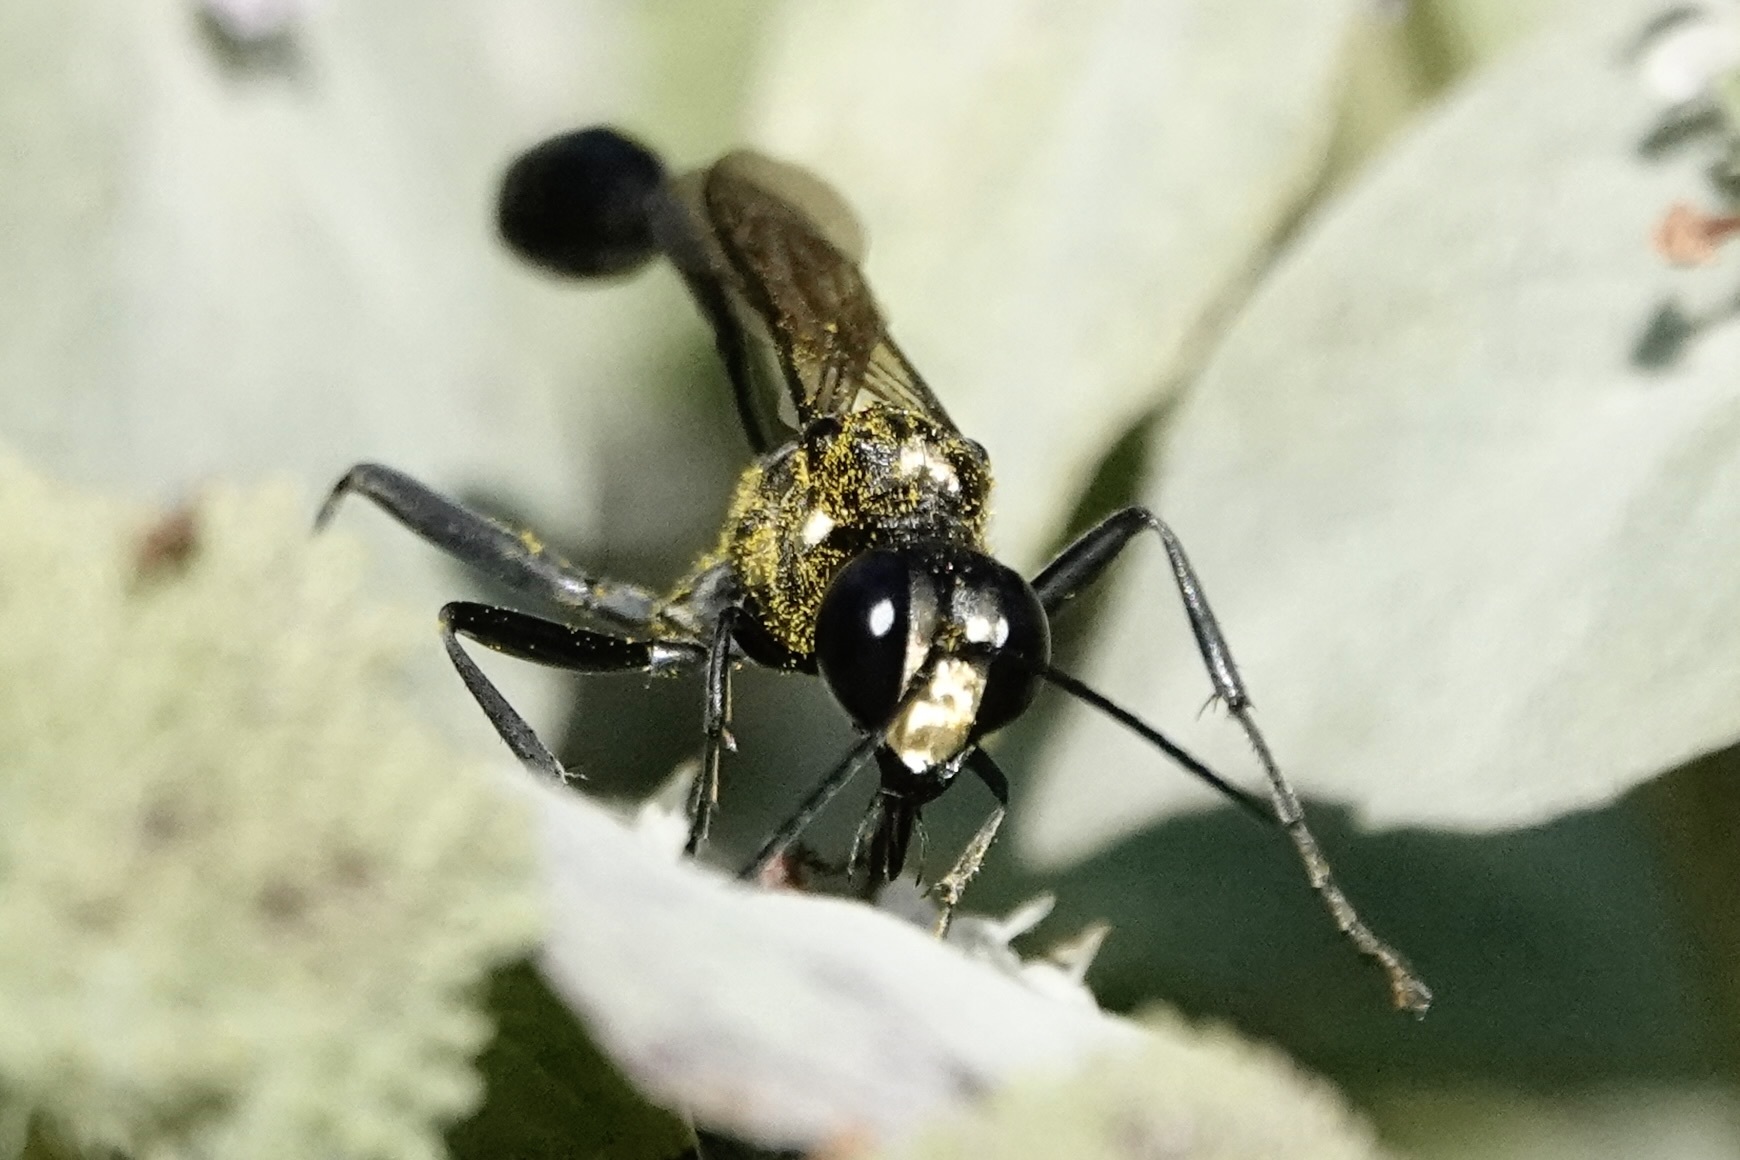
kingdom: Animalia
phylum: Arthropoda
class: Insecta
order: Hymenoptera
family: Sphecidae
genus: Eremnophila
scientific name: Eremnophila aureonotata
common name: Gold-marked thread-waisted wasp
